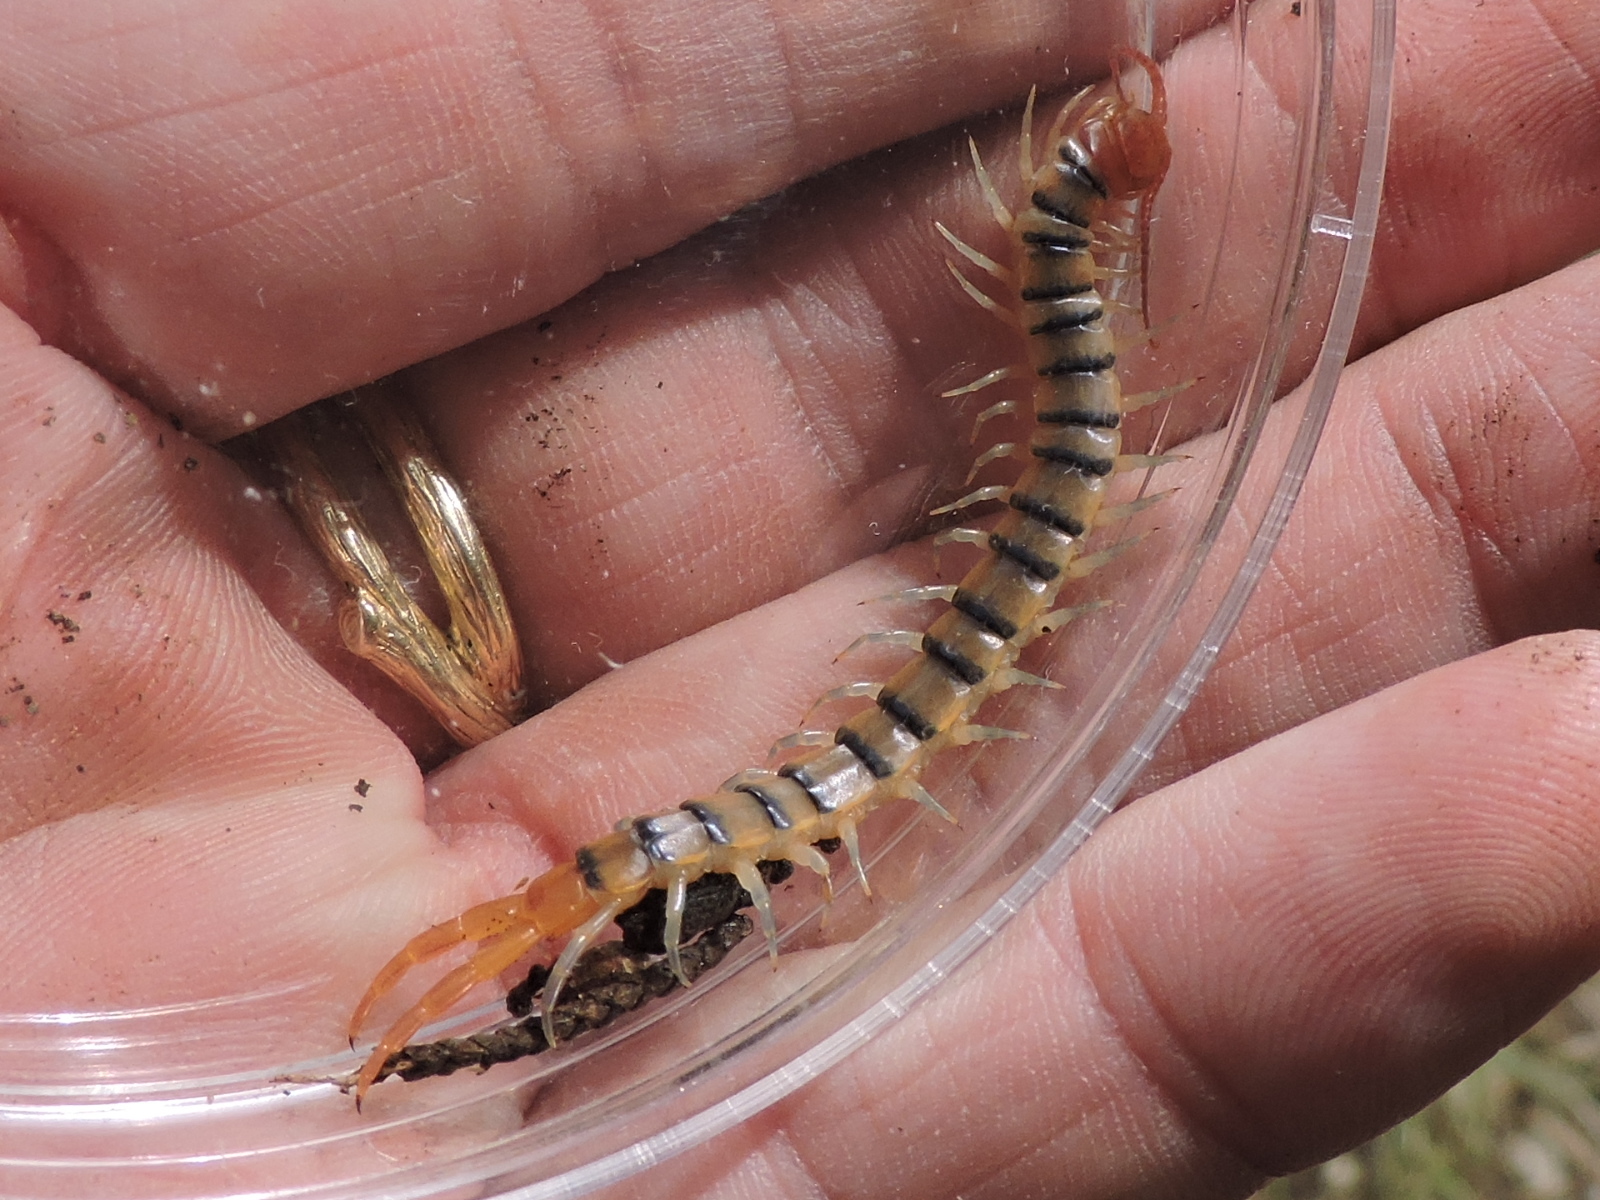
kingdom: Animalia
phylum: Arthropoda
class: Chilopoda
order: Scolopendromorpha
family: Scolopendridae
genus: Scolopendra
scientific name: Scolopendra viridis
